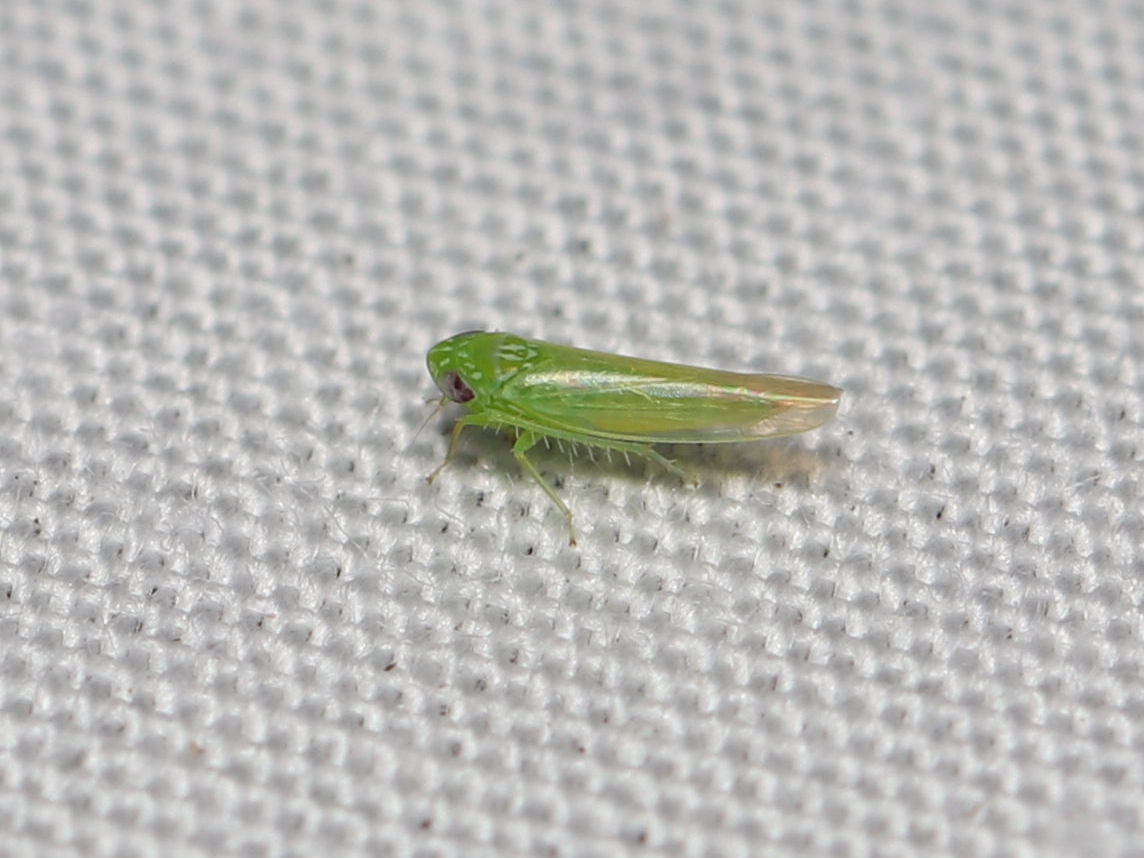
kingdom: Animalia
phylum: Arthropoda
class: Insecta
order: Hemiptera
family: Cicadellidae
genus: Empoasca
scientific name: Empoasca fabae
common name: Potato leafhopper
